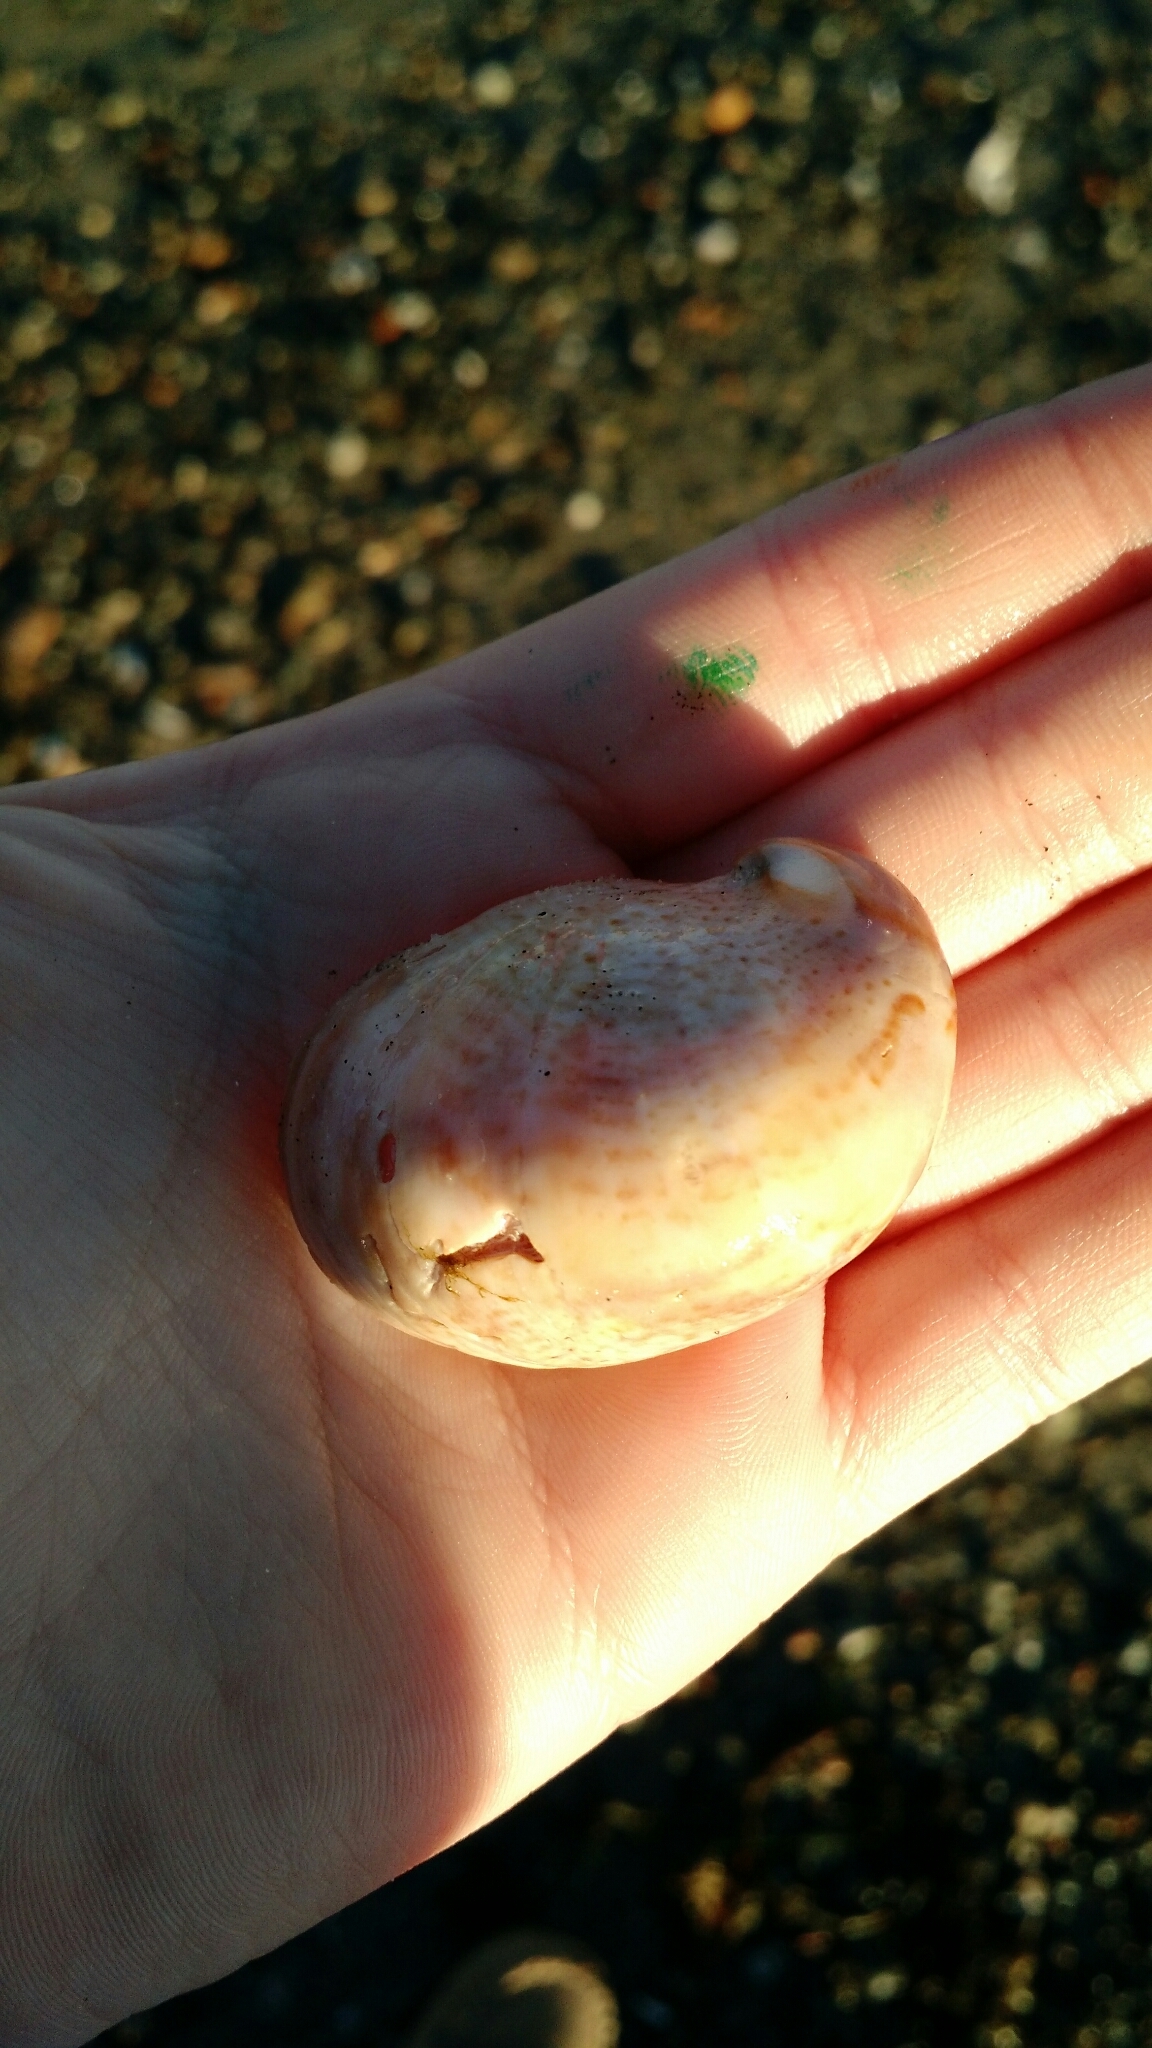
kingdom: Animalia
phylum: Mollusca
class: Gastropoda
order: Littorinimorpha
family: Calyptraeidae
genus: Crepidula
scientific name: Crepidula fornicata
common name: Slipper limpet
